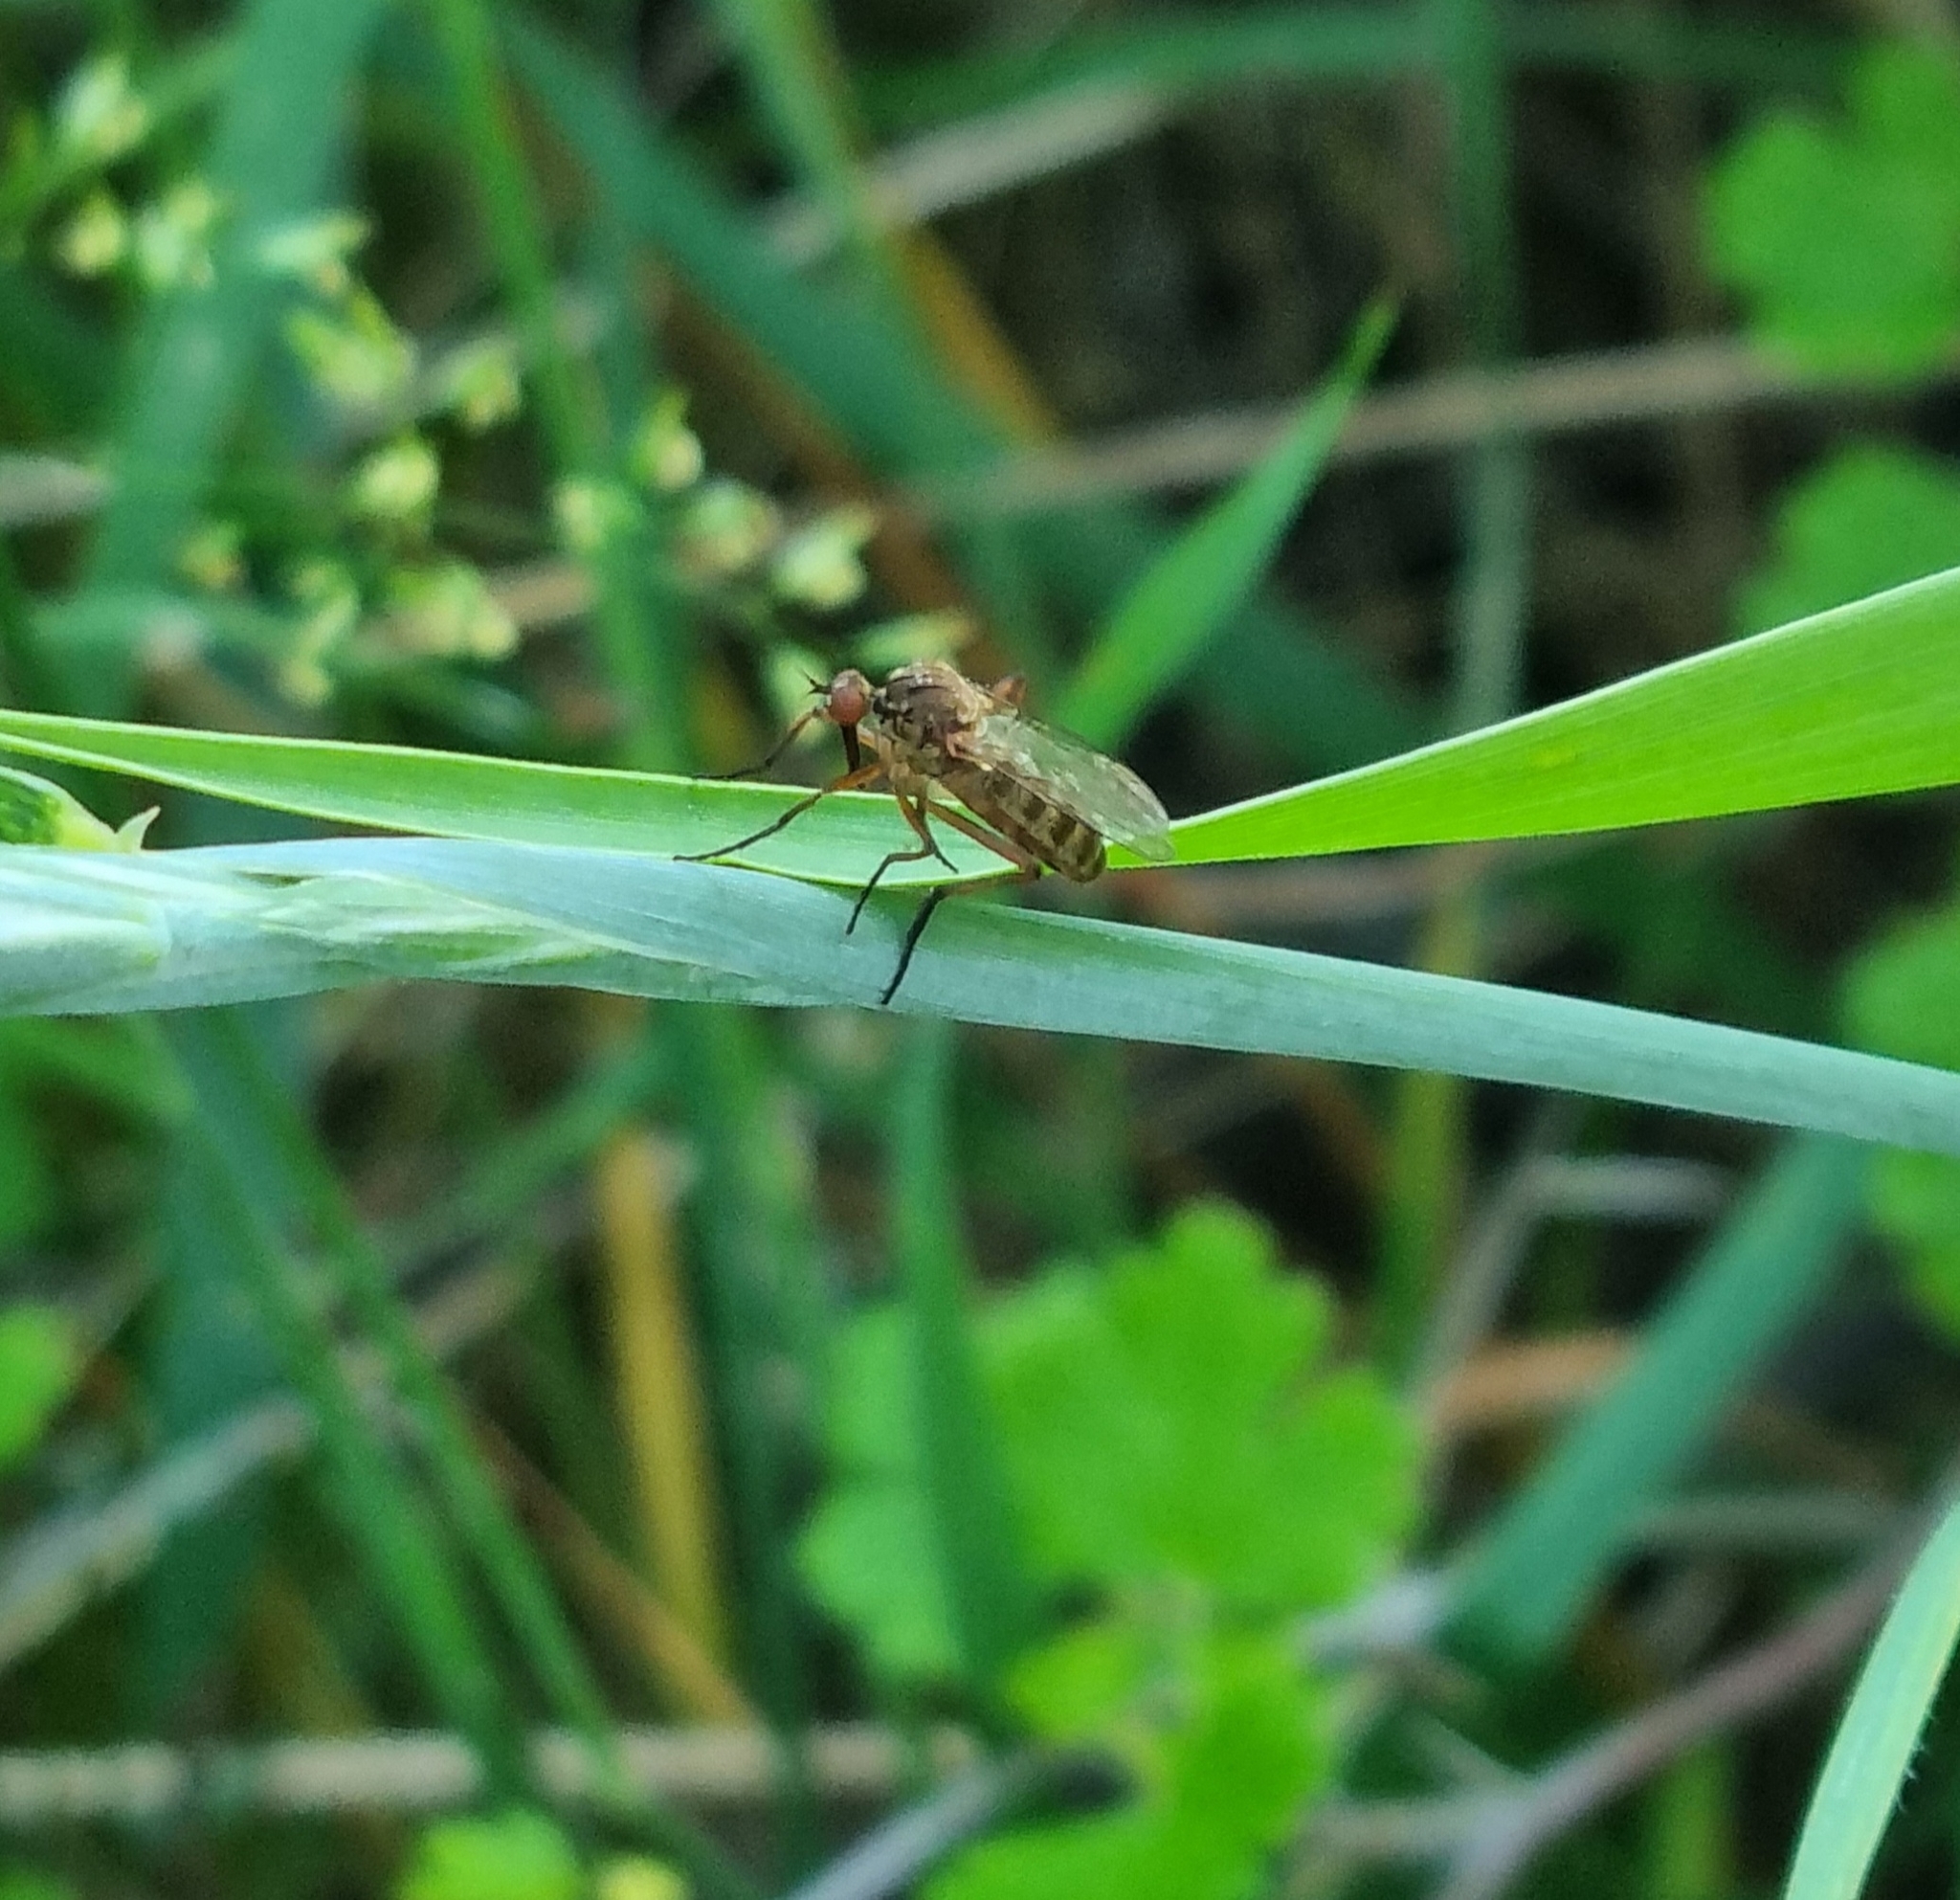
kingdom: Animalia
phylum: Arthropoda
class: Insecta
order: Diptera
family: Empididae
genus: Empis
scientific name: Empis livida
